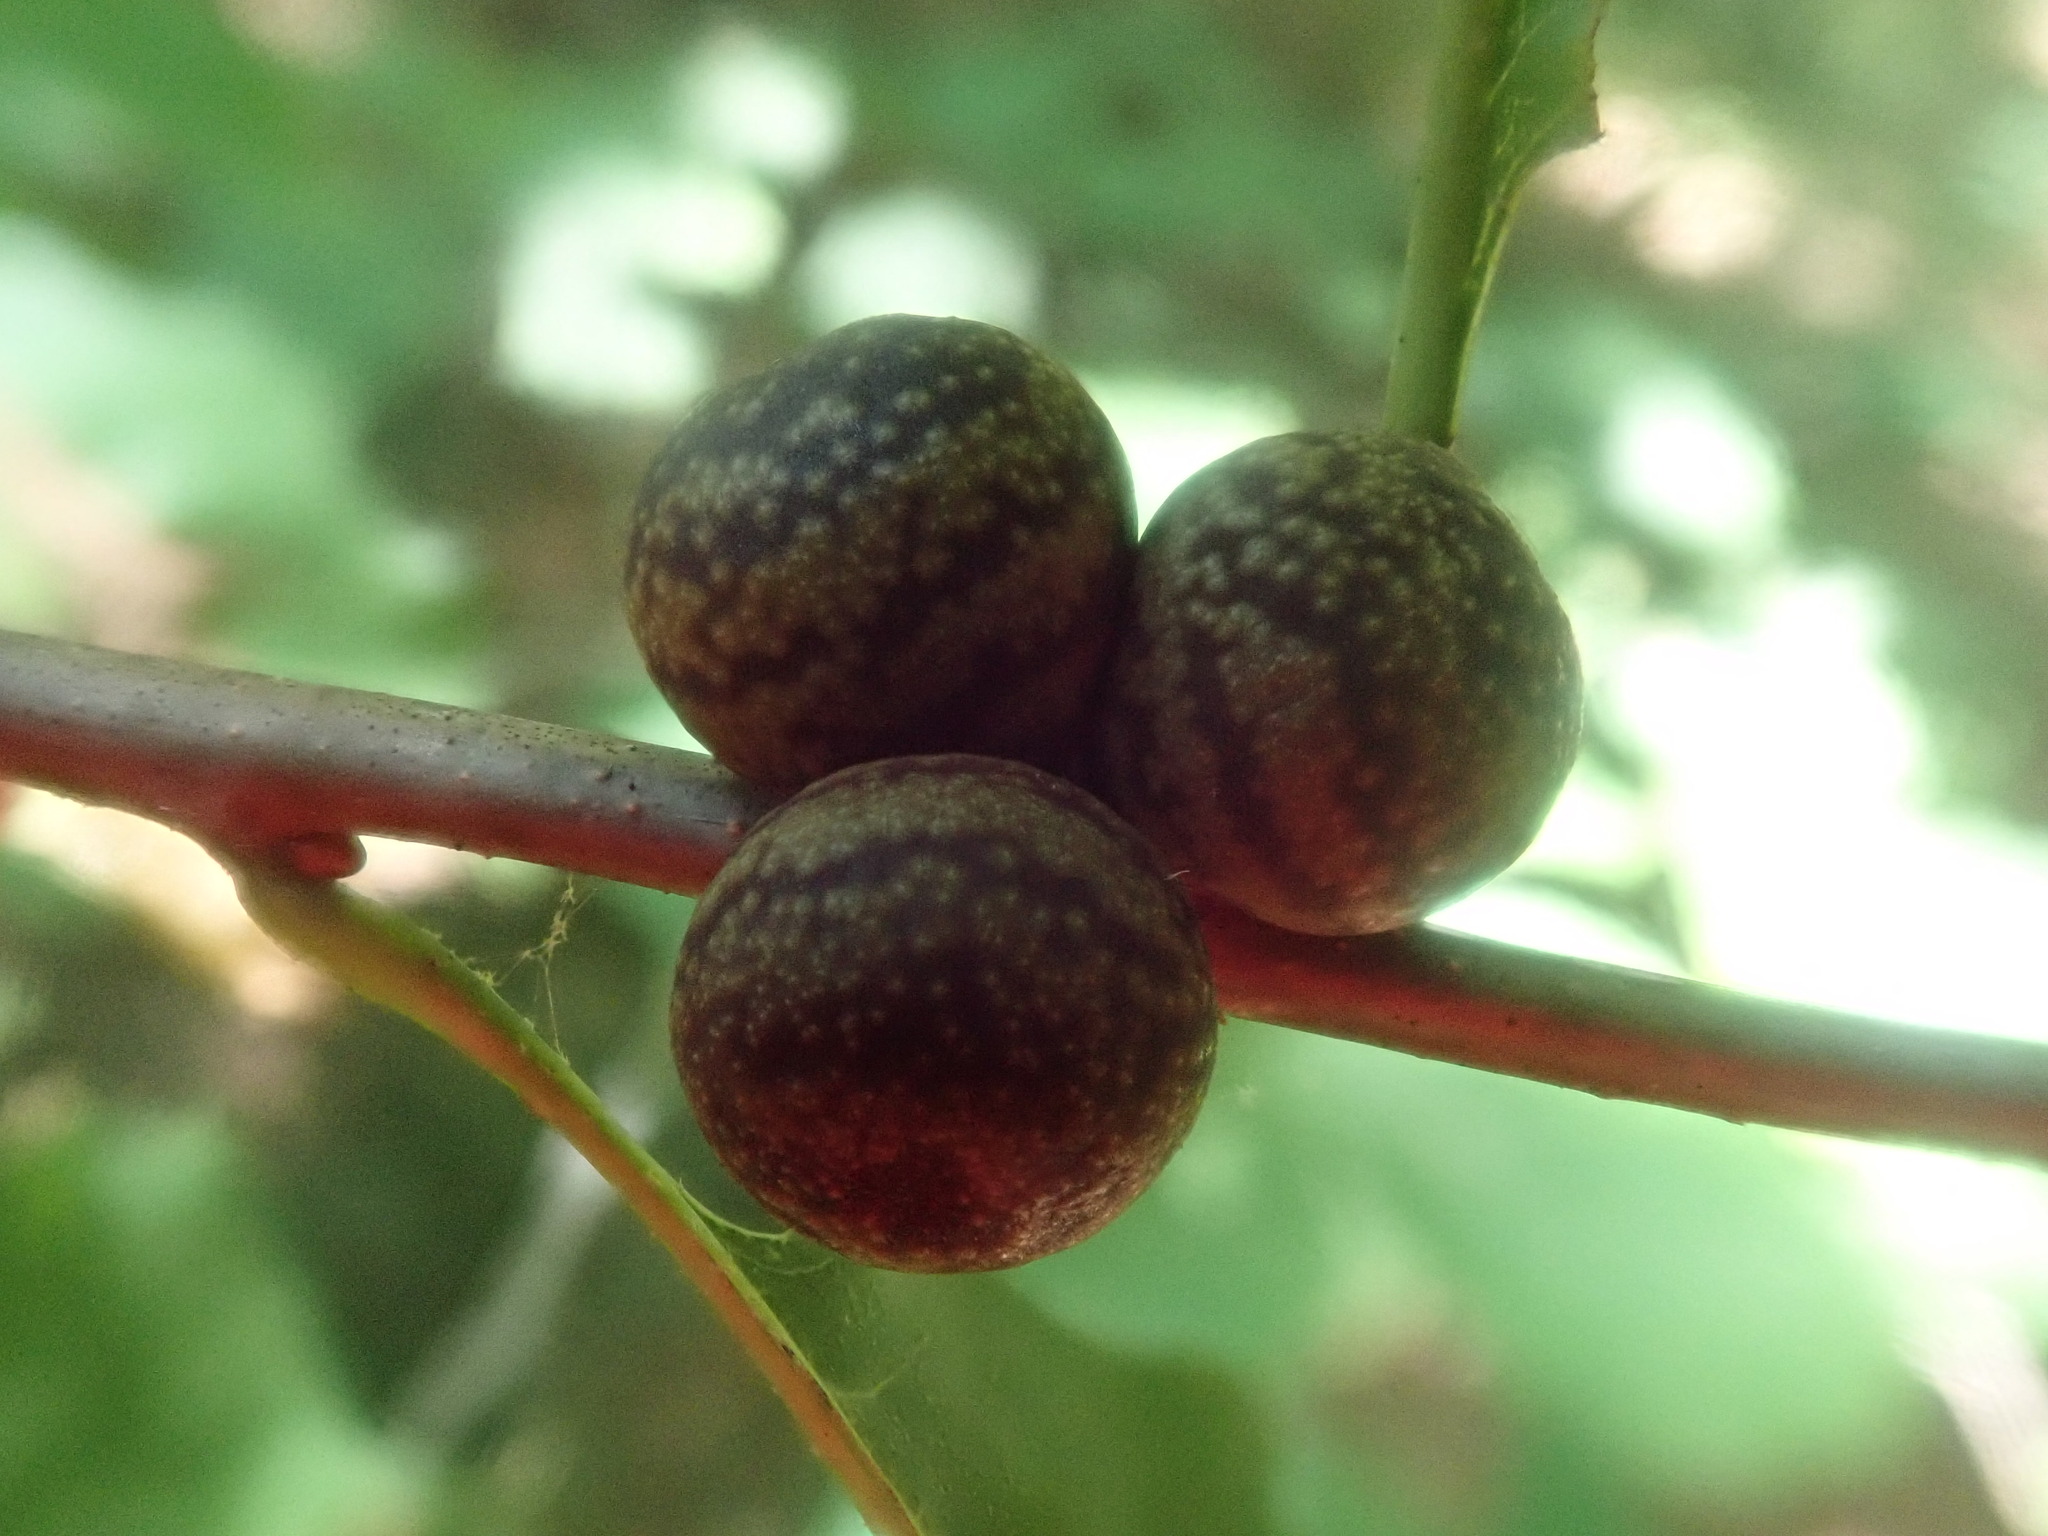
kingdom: Animalia
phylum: Arthropoda
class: Insecta
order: Hymenoptera
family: Cynipidae
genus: Kokkocynips
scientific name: Kokkocynips imbricariae
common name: Banded bullet gall wasp
